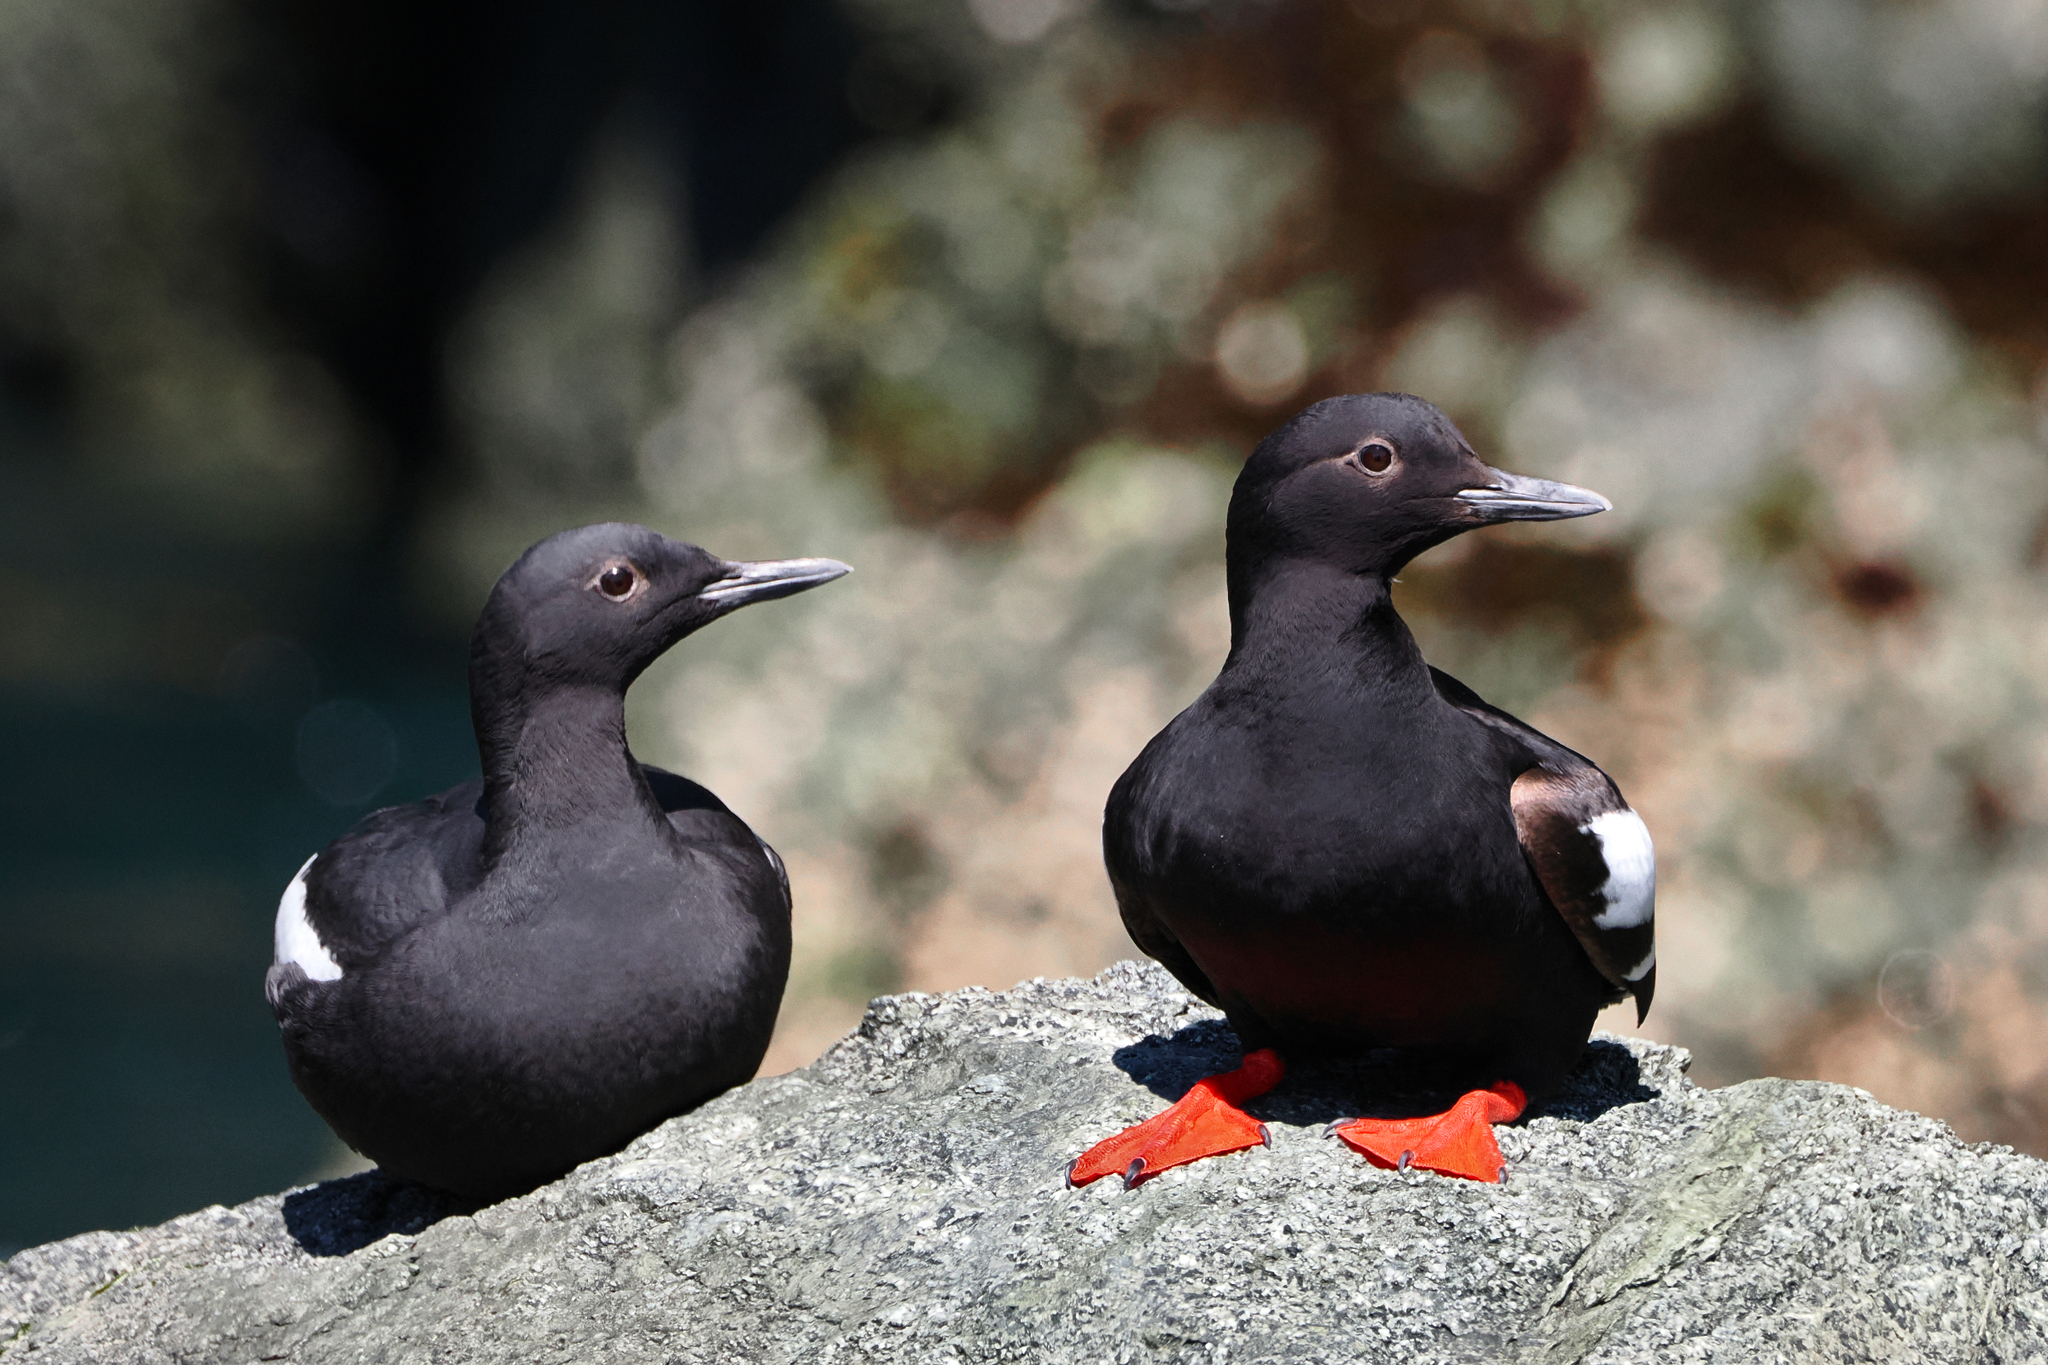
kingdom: Animalia
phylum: Chordata
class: Aves
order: Charadriiformes
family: Alcidae
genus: Cepphus
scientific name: Cepphus columba
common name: Pigeon guillemot
